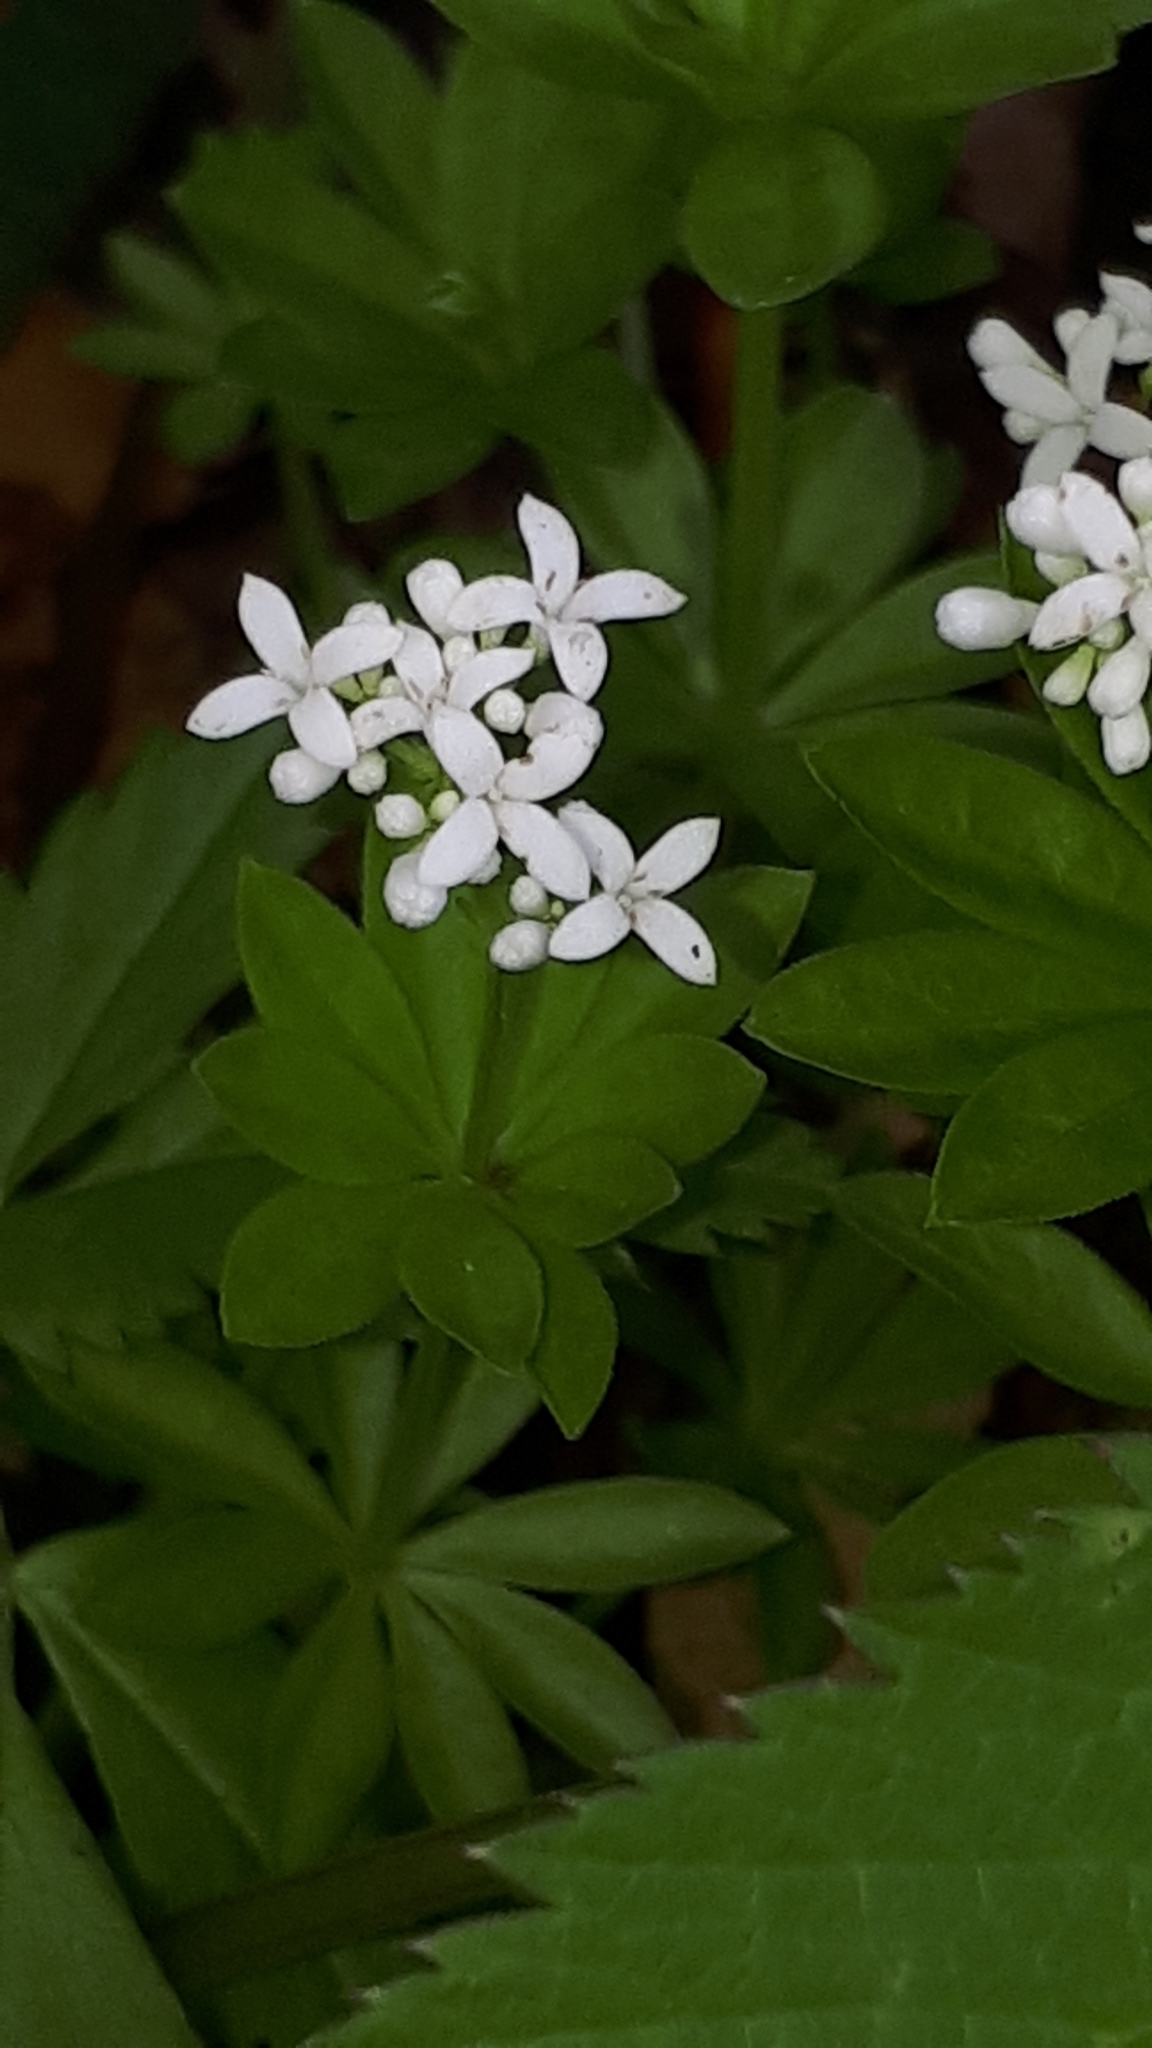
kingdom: Plantae
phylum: Tracheophyta
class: Magnoliopsida
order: Gentianales
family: Rubiaceae
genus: Galium
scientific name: Galium odoratum
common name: Sweet woodruff
